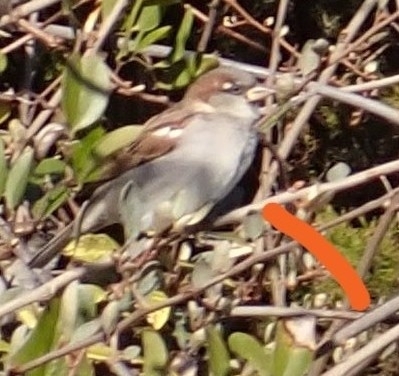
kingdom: Animalia
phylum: Chordata
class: Aves
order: Passeriformes
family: Passeridae
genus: Passer
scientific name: Passer domesticus
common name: House sparrow
